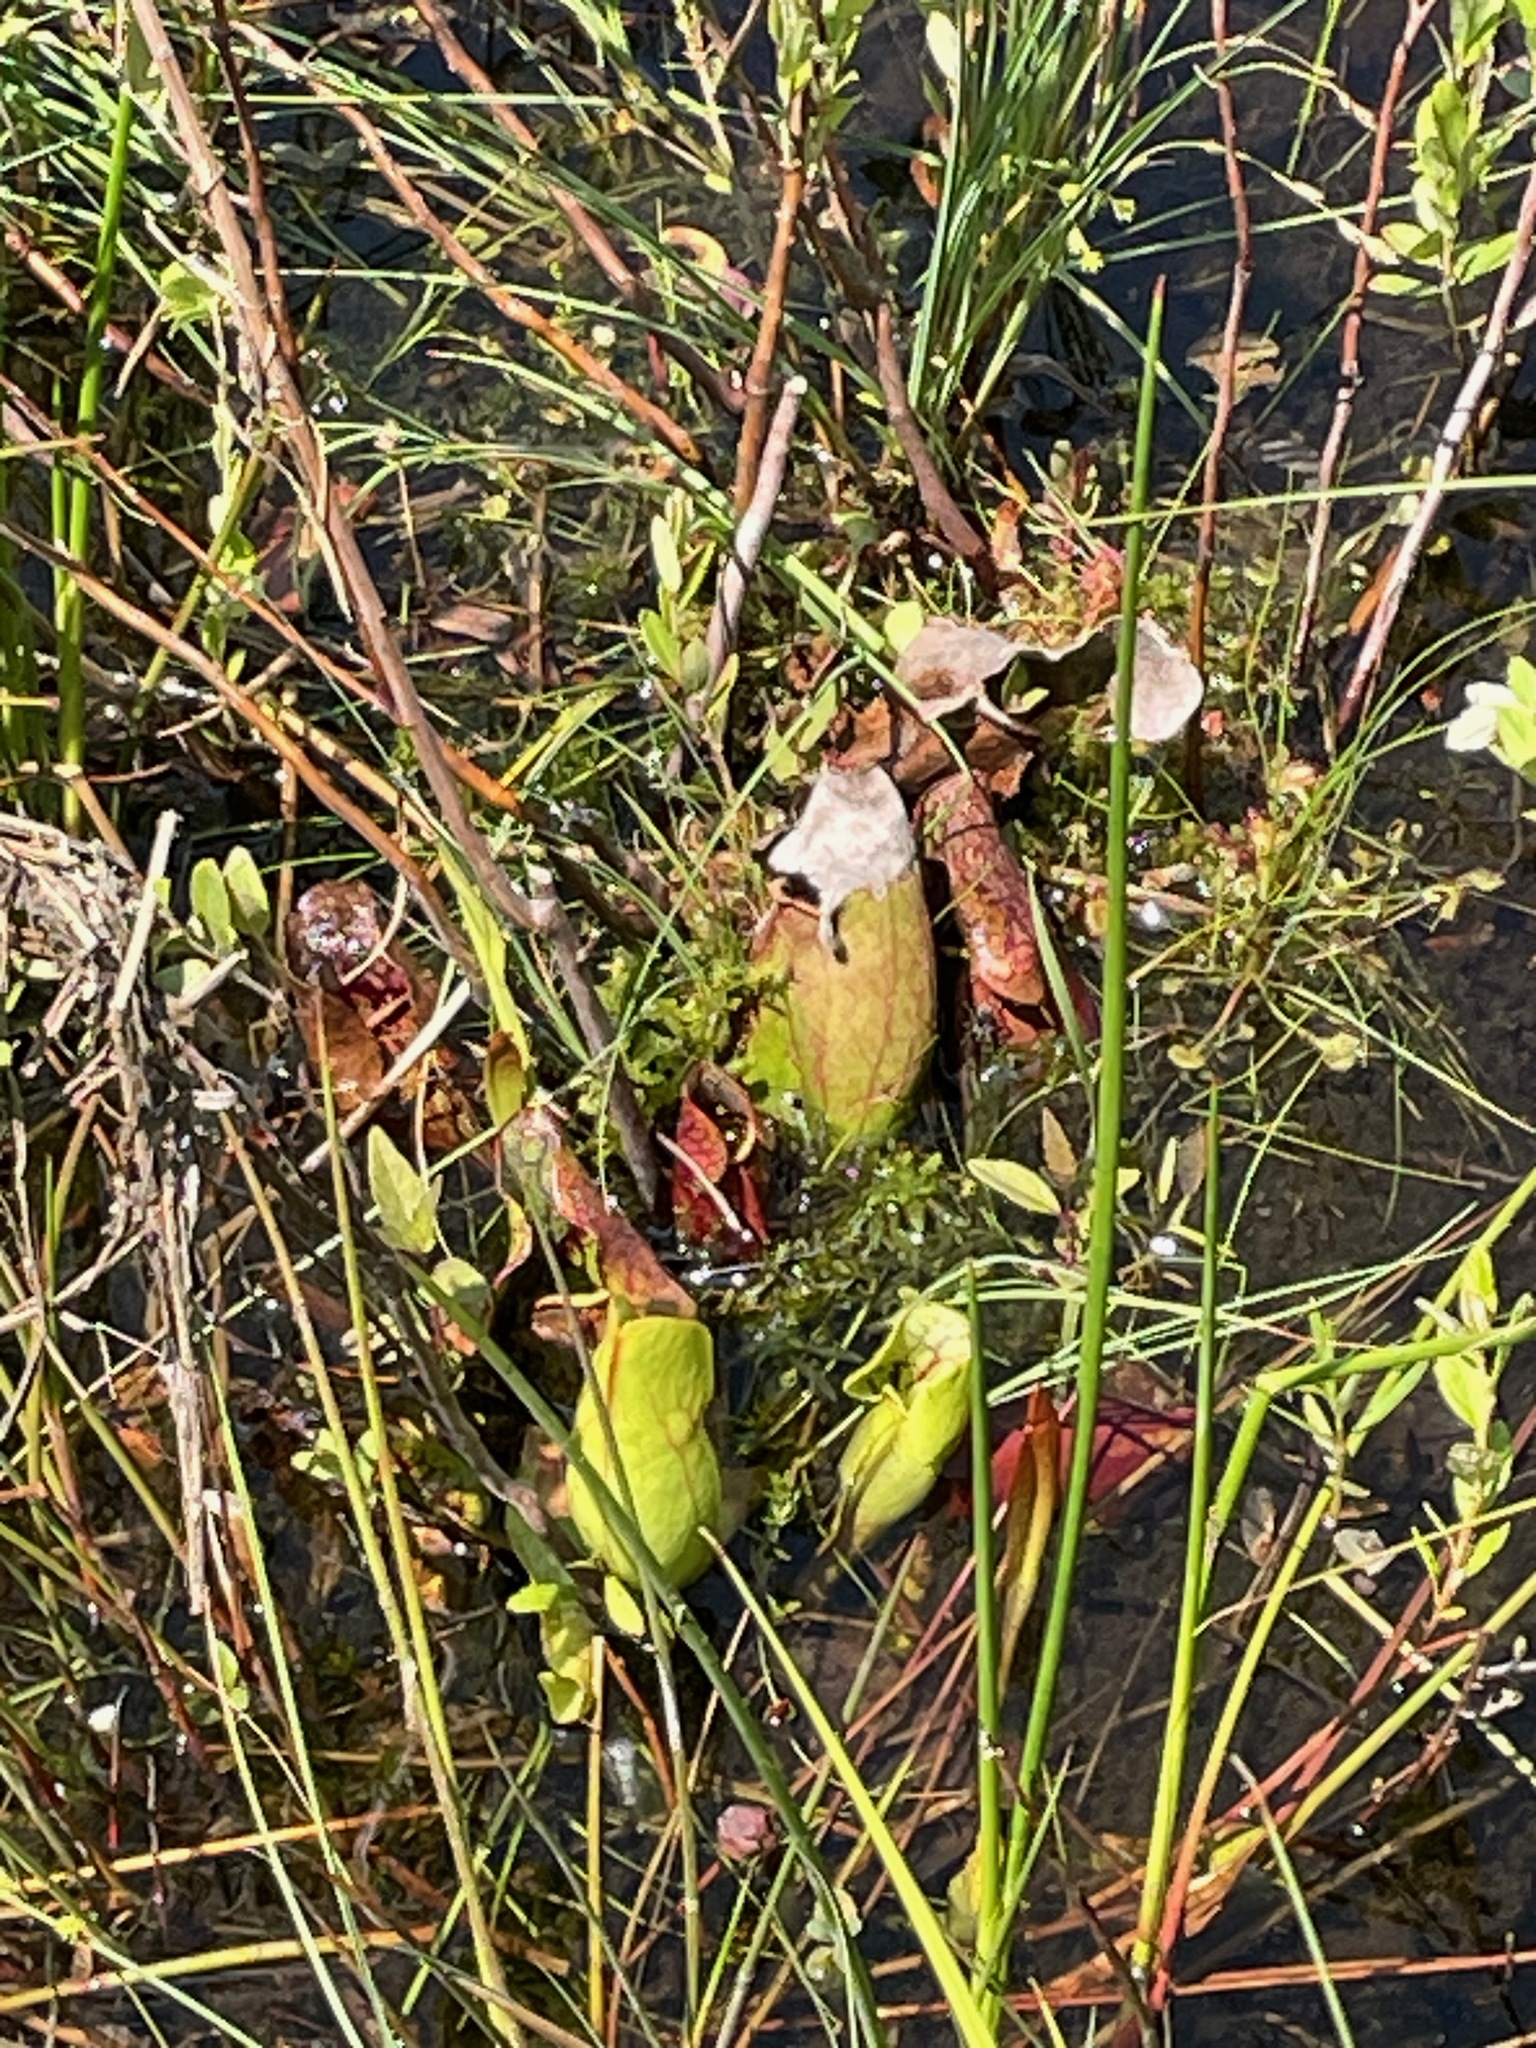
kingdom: Plantae
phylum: Tracheophyta
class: Magnoliopsida
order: Ericales
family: Sarraceniaceae
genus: Sarracenia
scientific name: Sarracenia purpurea
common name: Pitcherplant
